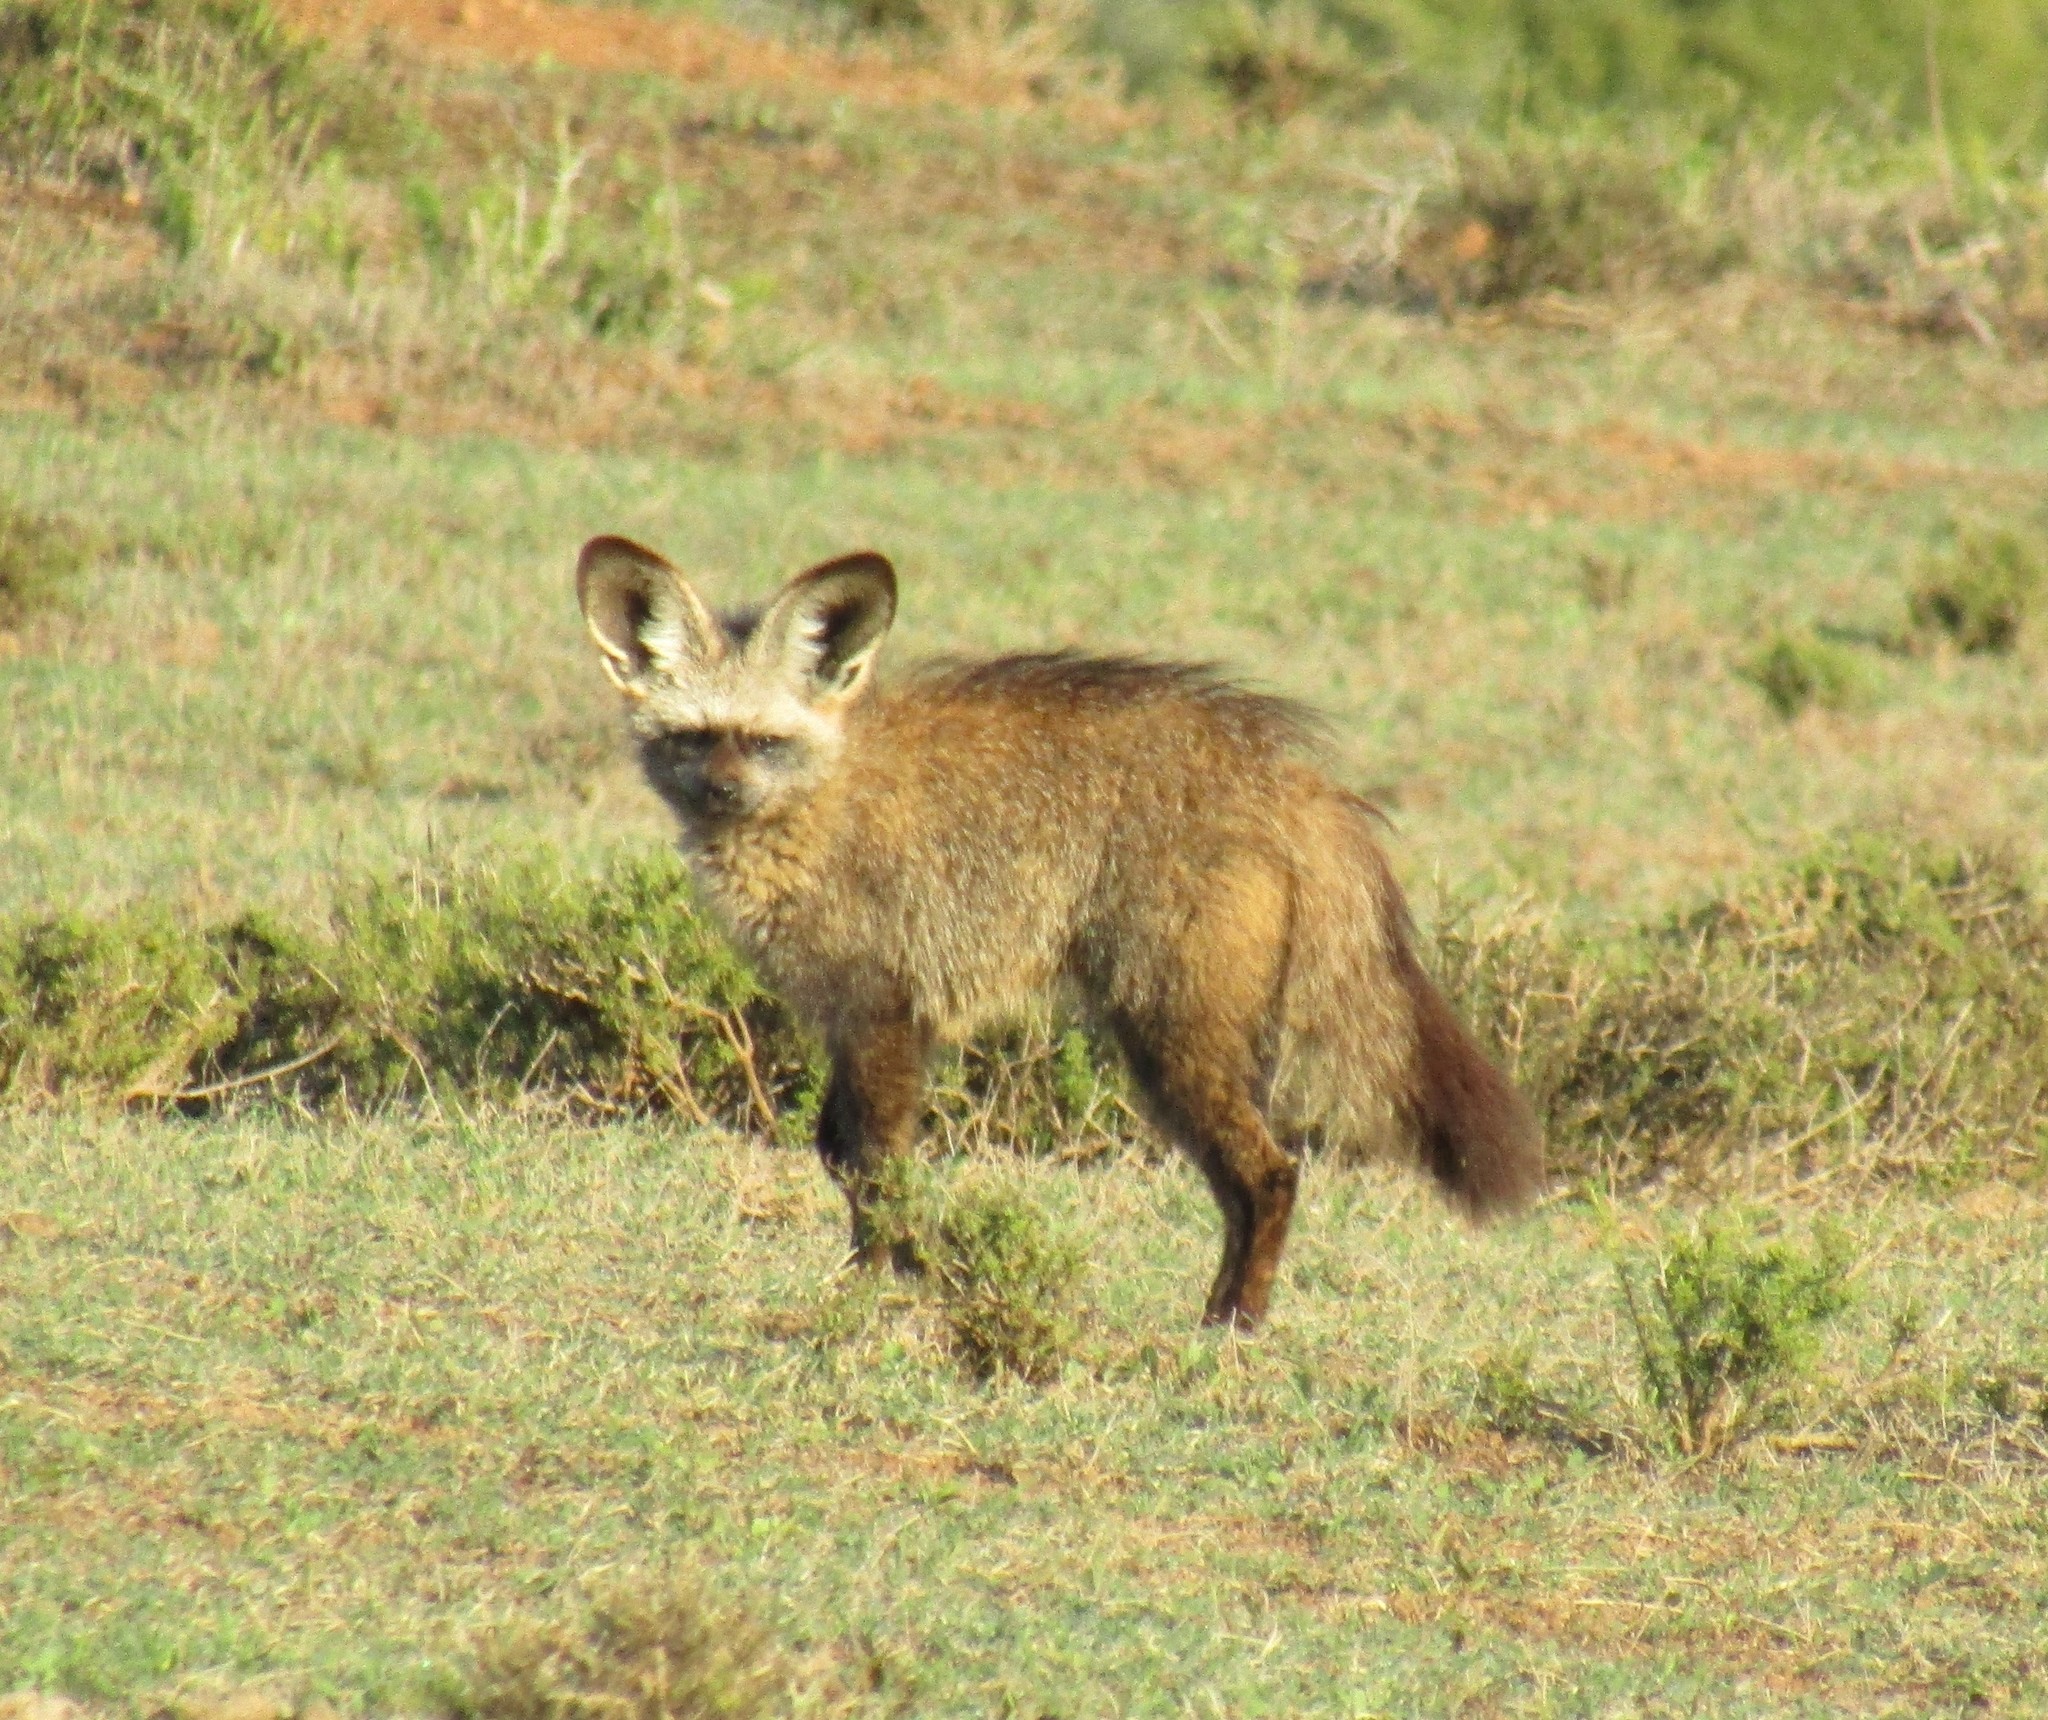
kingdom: Animalia
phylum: Chordata
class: Mammalia
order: Carnivora
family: Canidae
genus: Otocyon
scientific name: Otocyon megalotis
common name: Bat-eared fox
